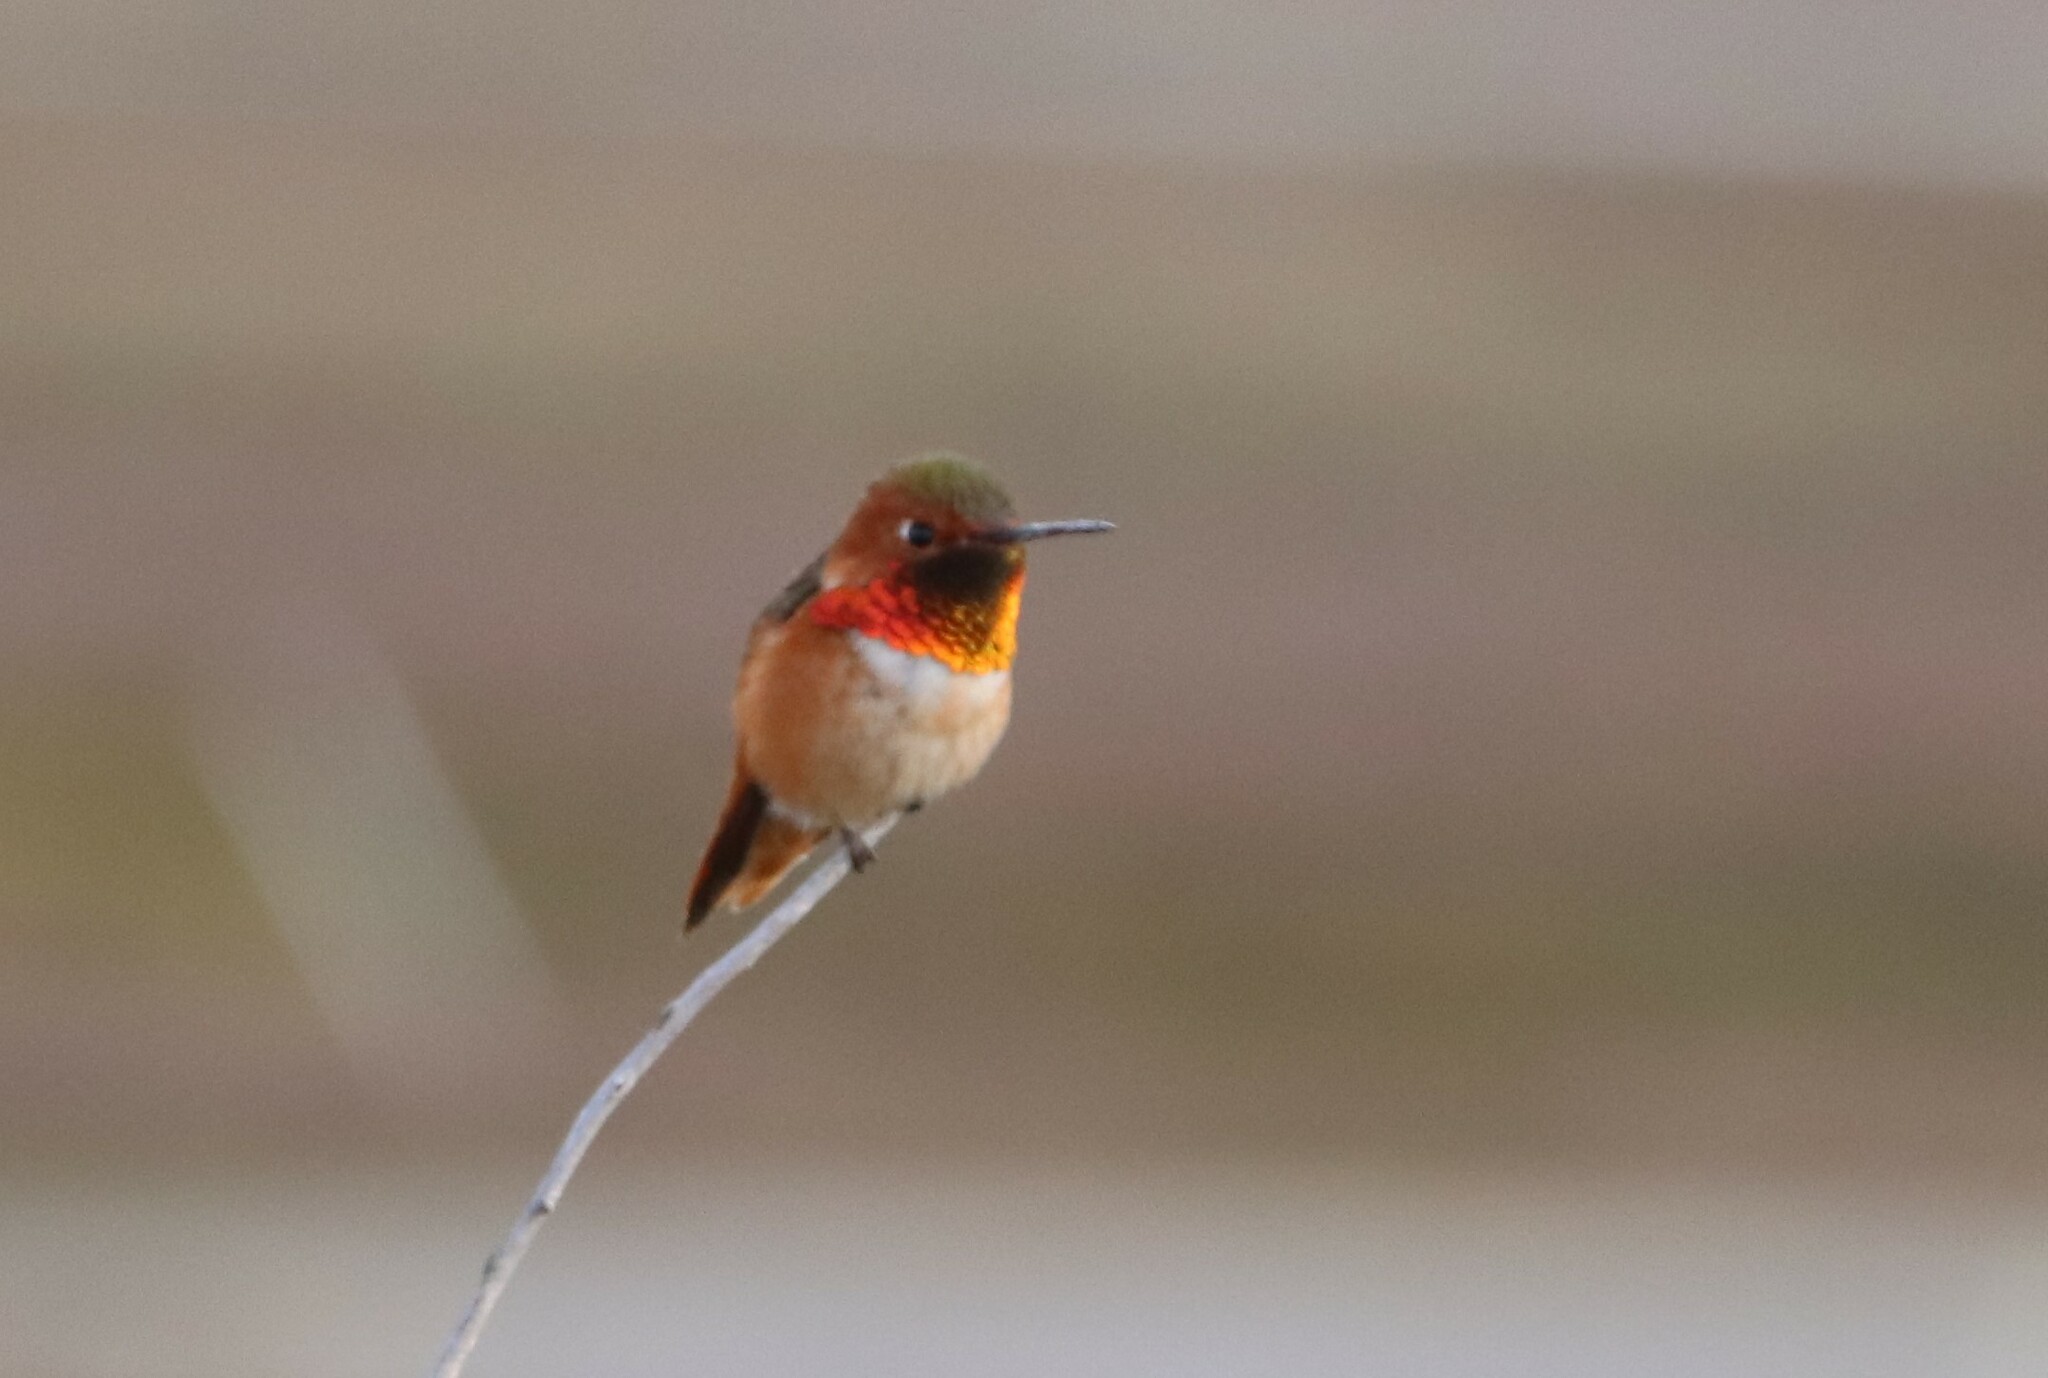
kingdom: Animalia
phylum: Chordata
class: Aves
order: Apodiformes
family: Trochilidae
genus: Selasphorus
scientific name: Selasphorus sasin
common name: Allen's hummingbird
